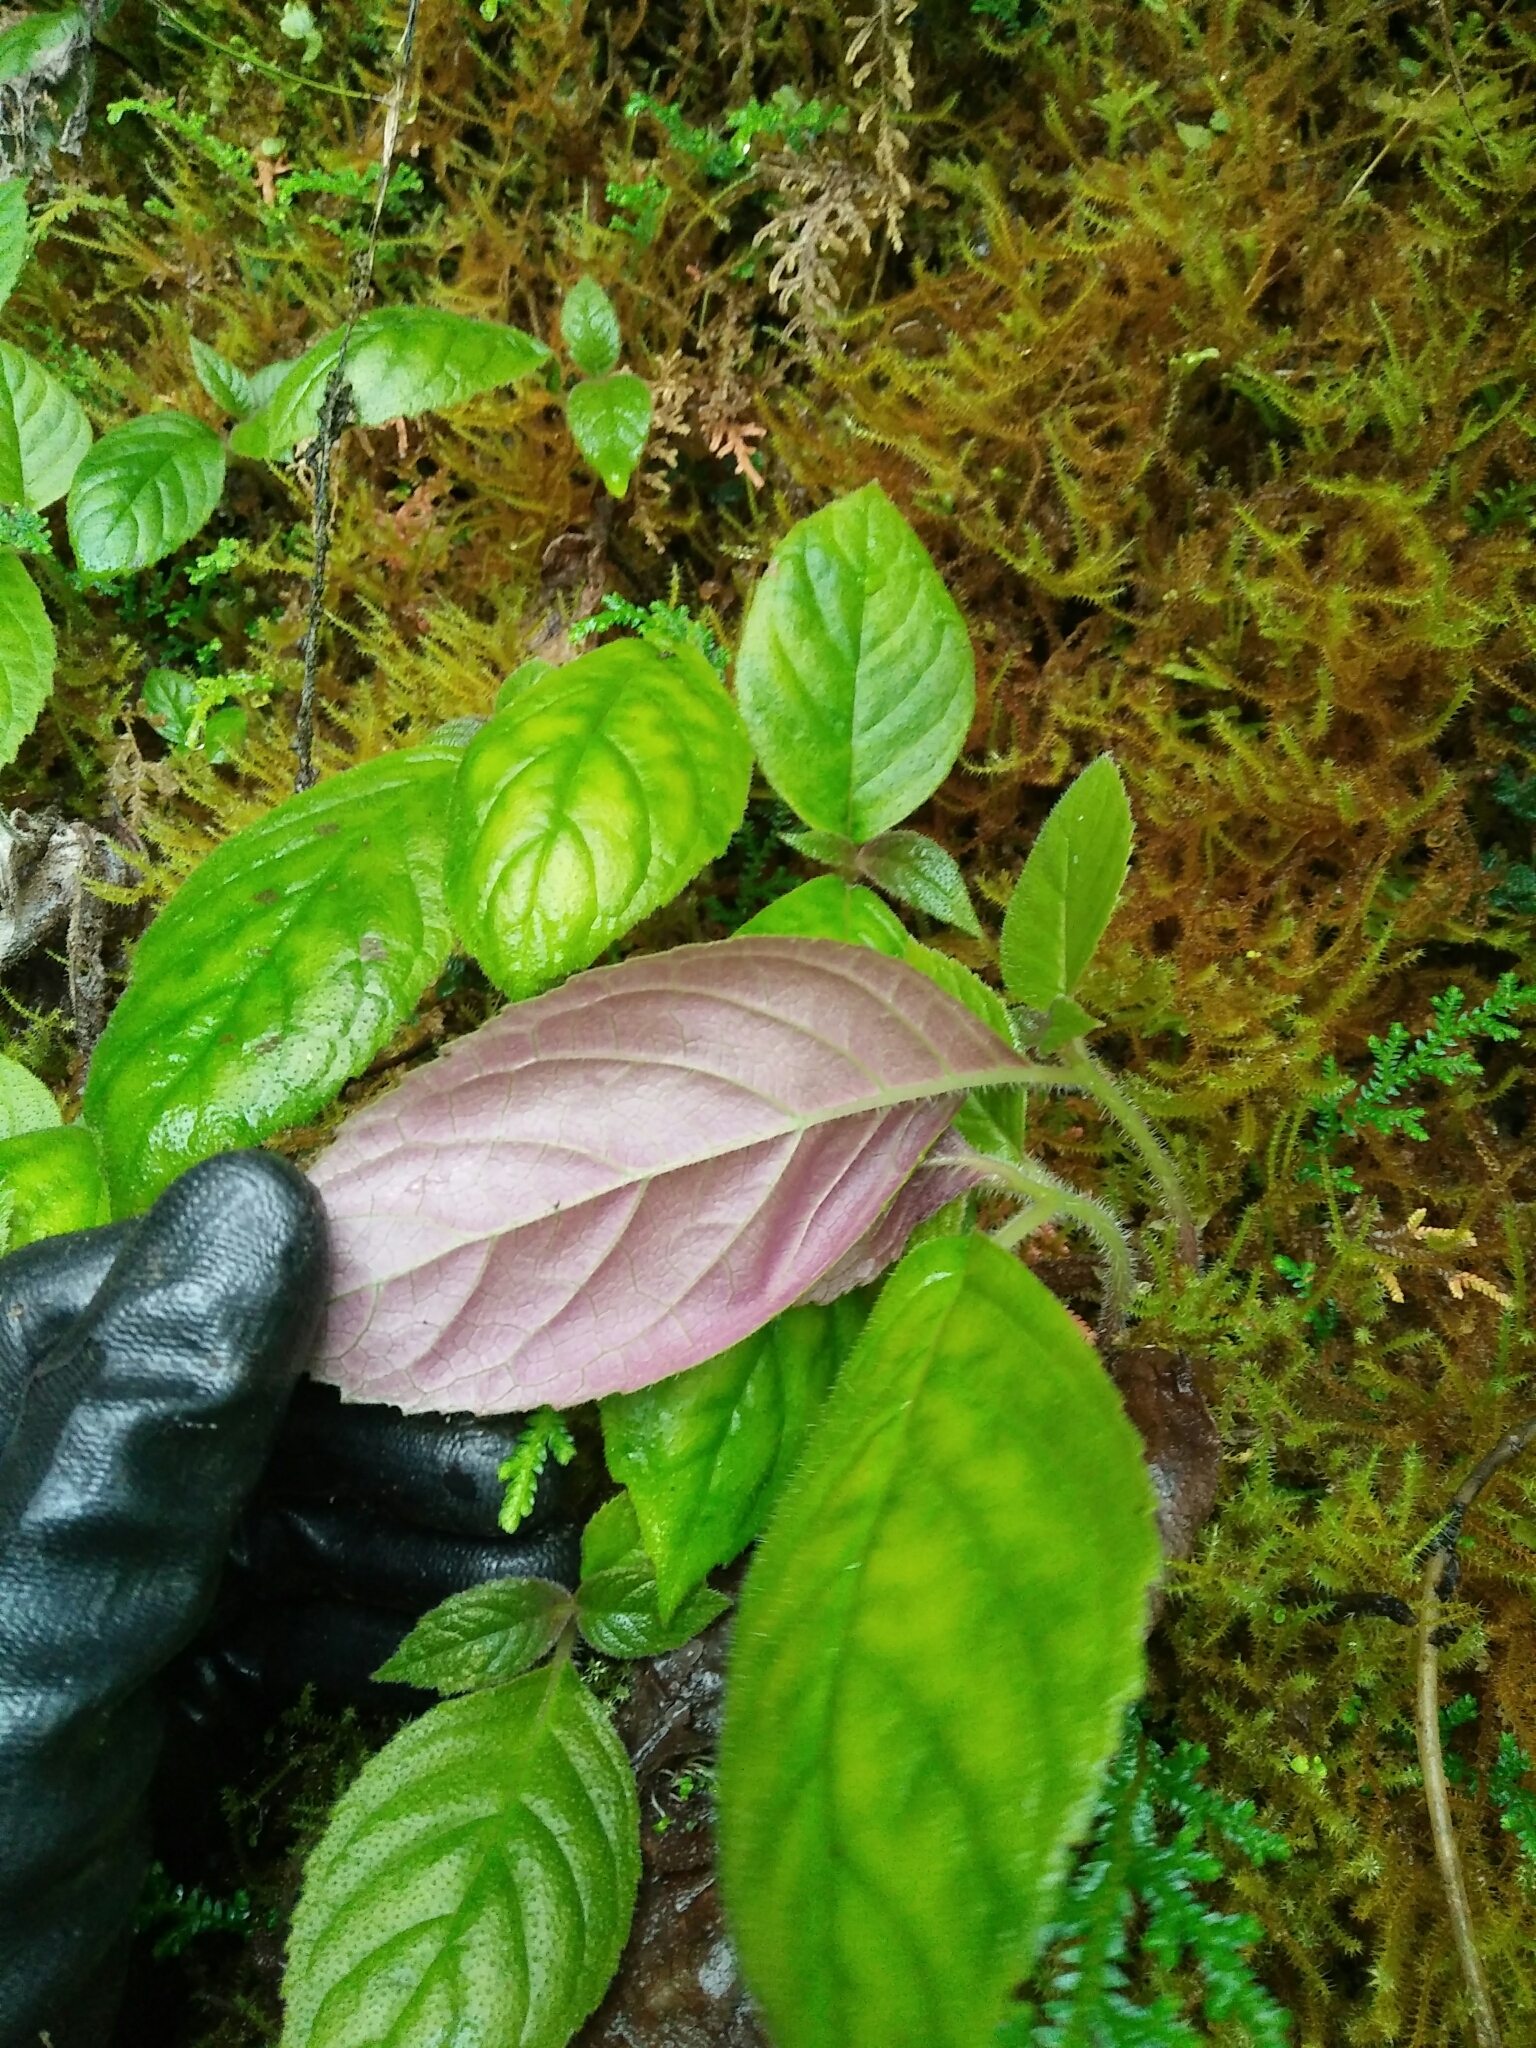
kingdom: Plantae
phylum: Tracheophyta
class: Magnoliopsida
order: Lamiales
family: Gesneriaceae
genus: Titanotrichum
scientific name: Titanotrichum oldhamii
